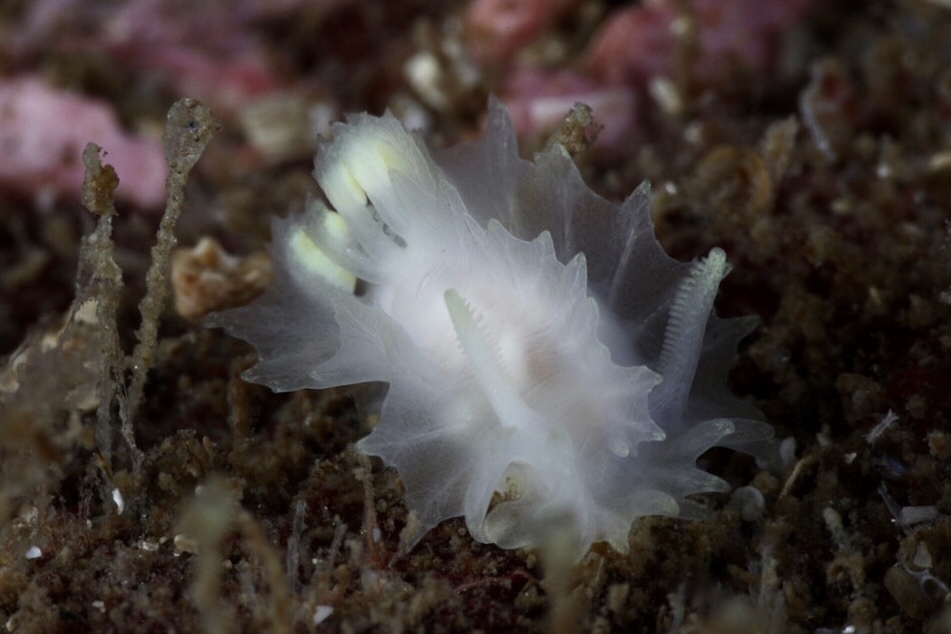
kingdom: Animalia
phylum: Mollusca
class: Gastropoda
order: Nudibranchia
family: Goniodorididae
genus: Lophodoris
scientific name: Lophodoris danielsseni
